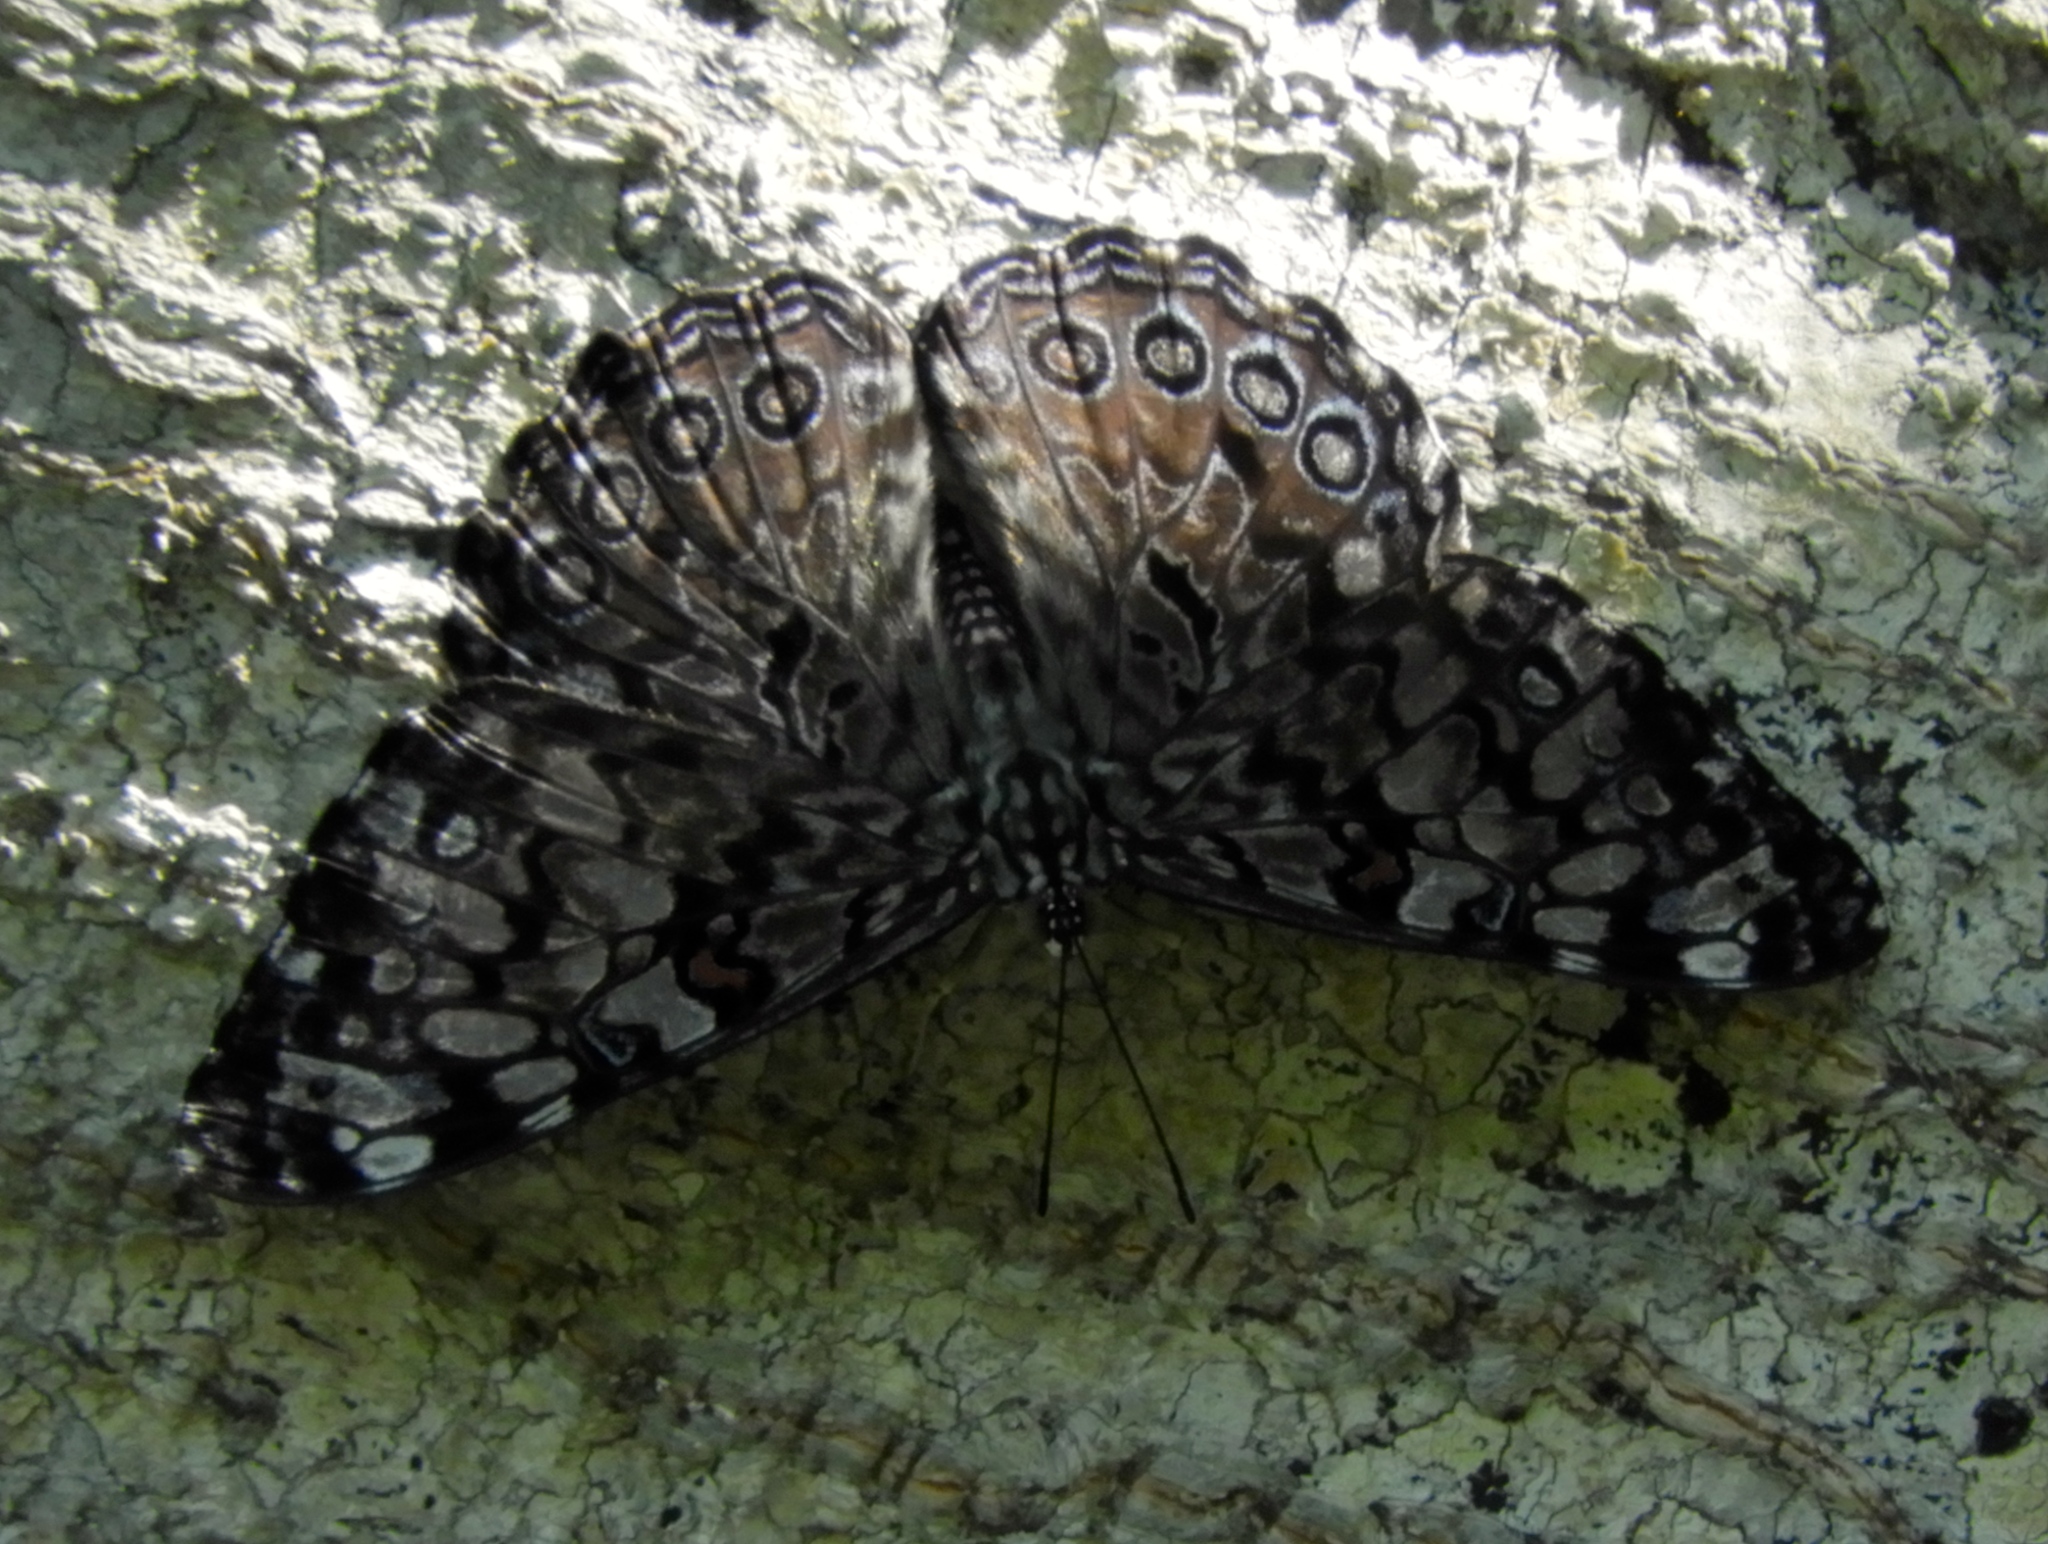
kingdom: Animalia
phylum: Arthropoda
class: Insecta
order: Lepidoptera
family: Nymphalidae
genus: Hamadryas
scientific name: Hamadryas
